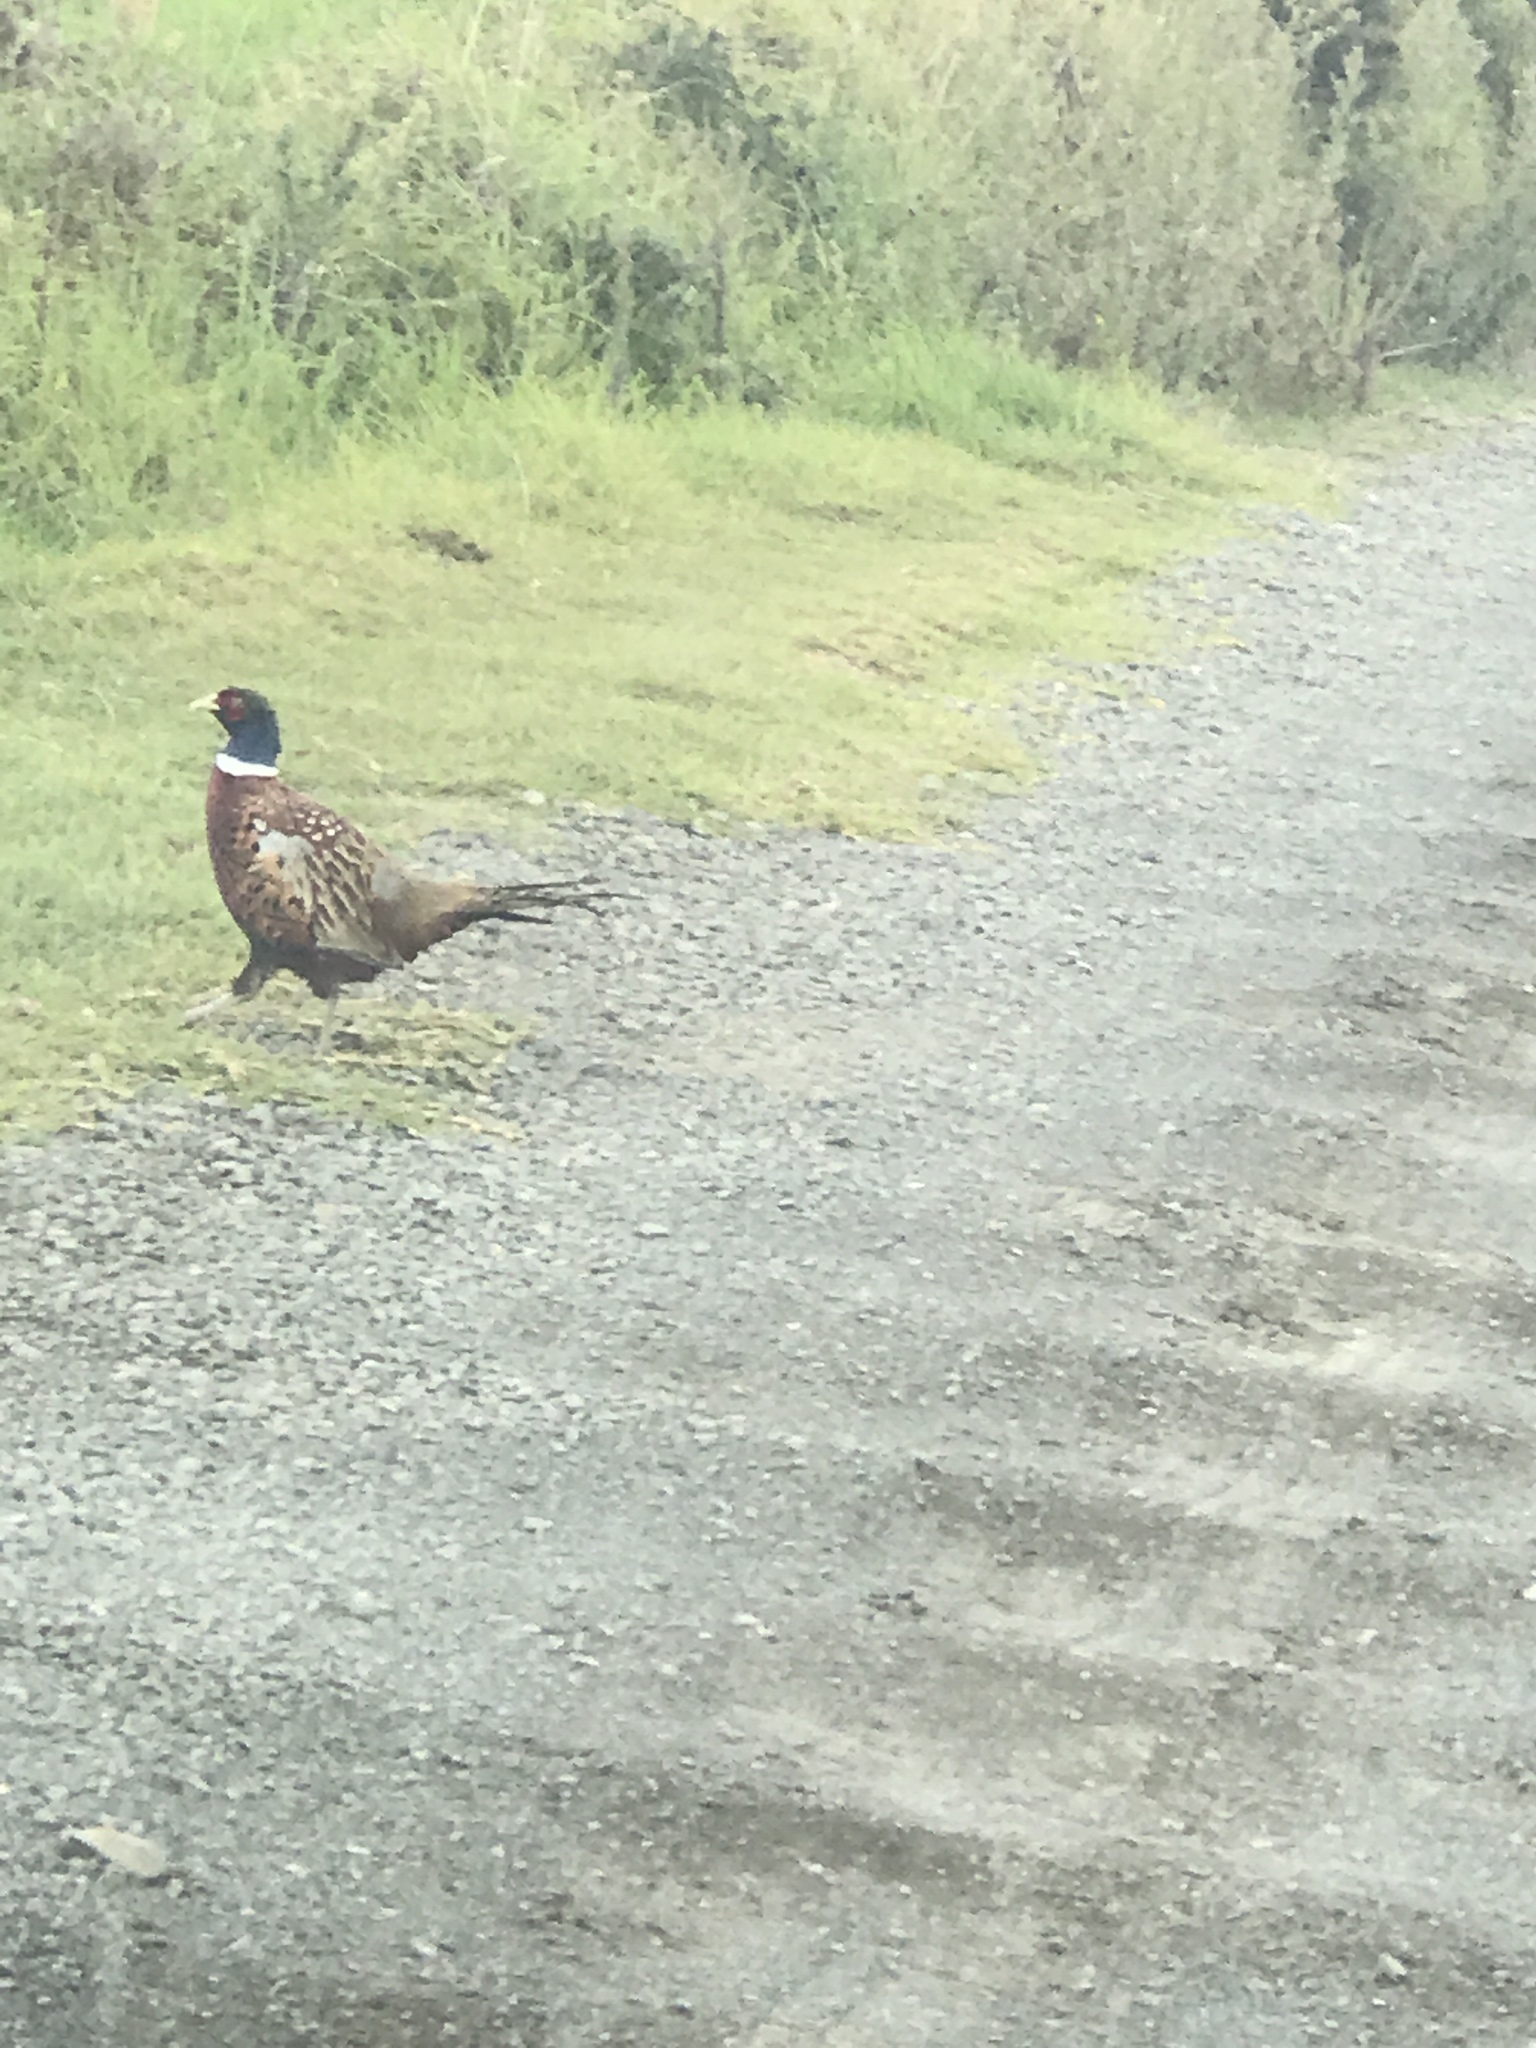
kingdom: Animalia
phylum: Chordata
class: Aves
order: Galliformes
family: Phasianidae
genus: Phasianus
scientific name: Phasianus colchicus
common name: Common pheasant
